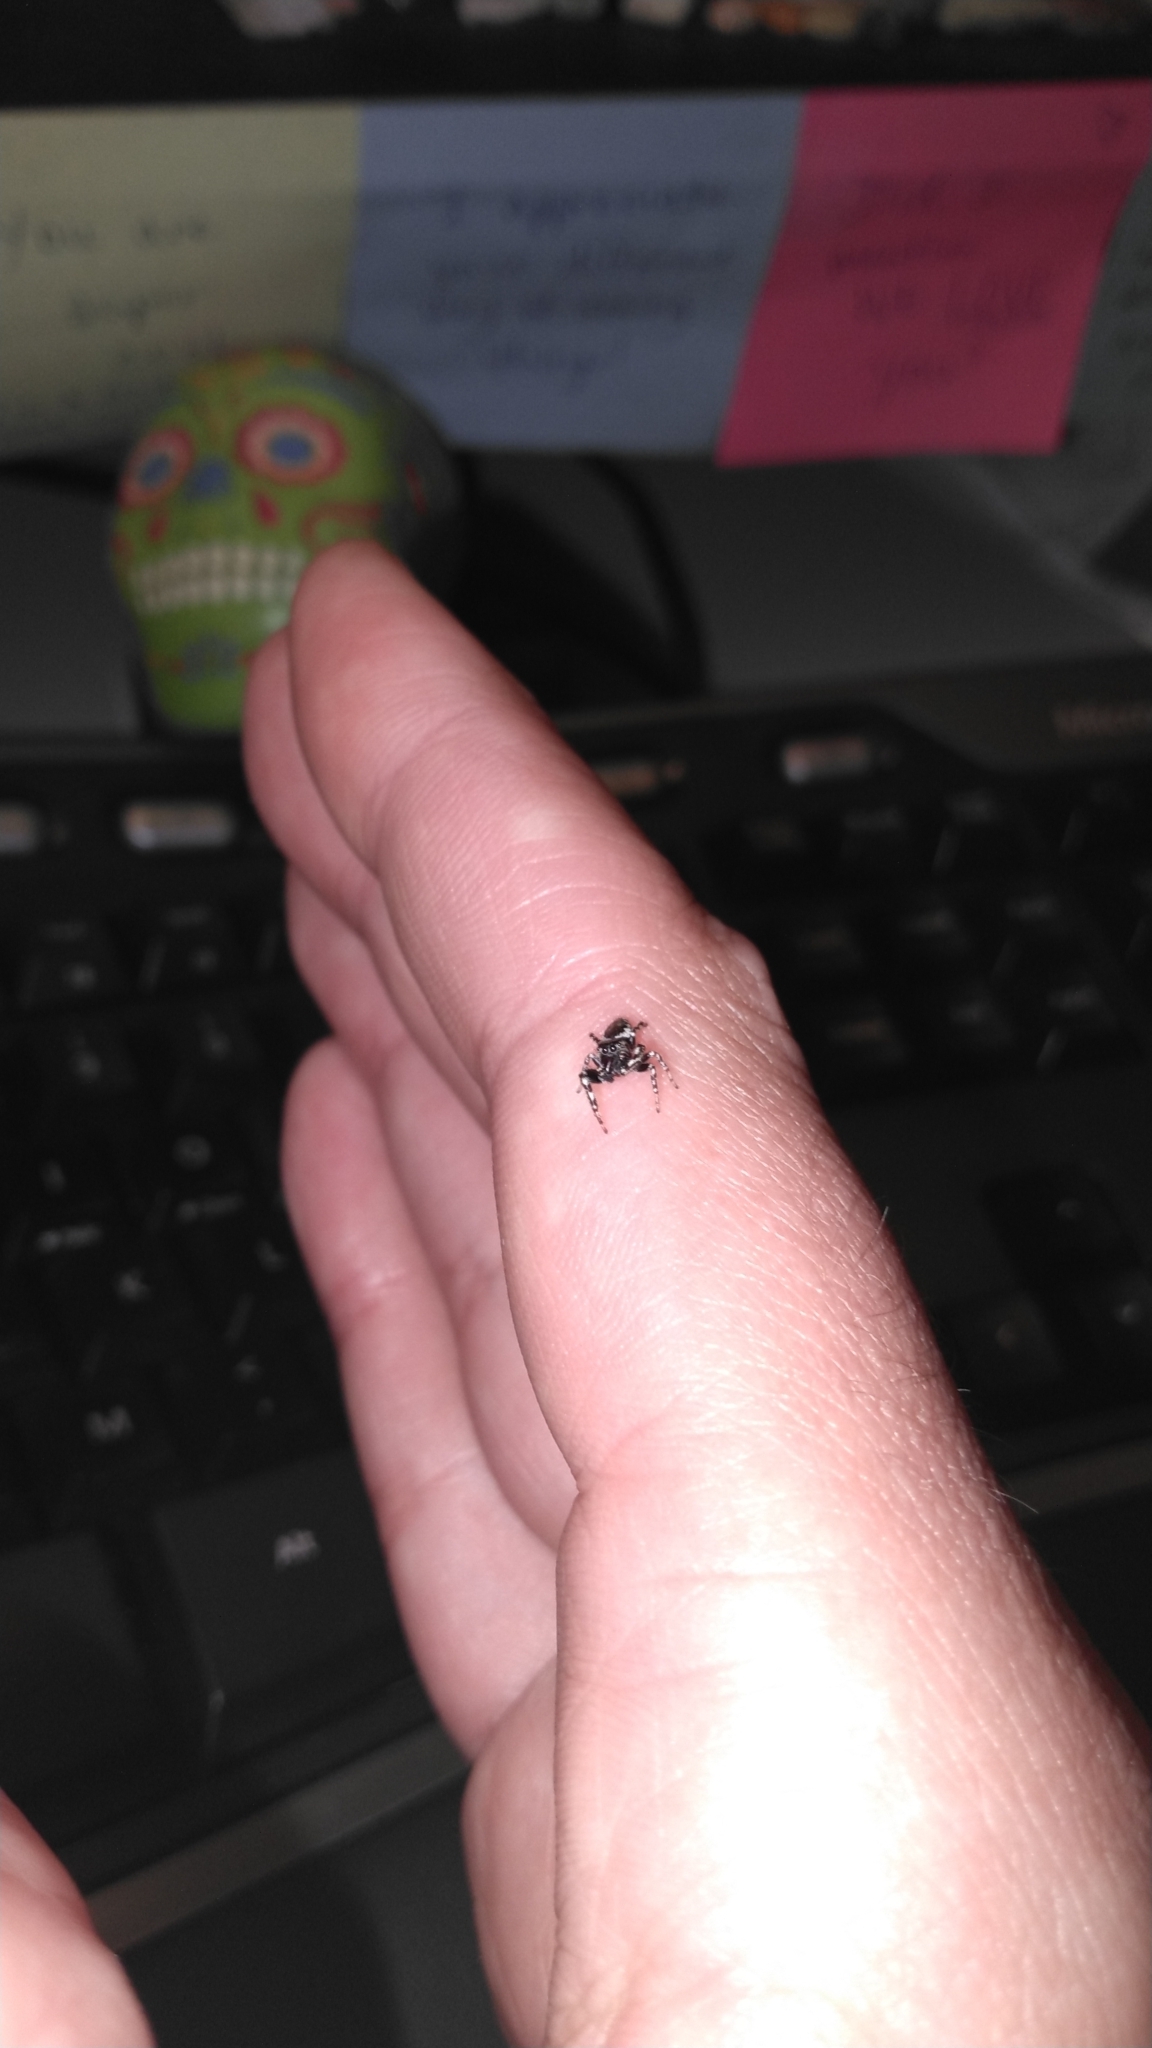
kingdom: Animalia
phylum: Arthropoda
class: Arachnida
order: Araneae
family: Salticidae
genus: Pelegrina
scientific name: Pelegrina aeneola
